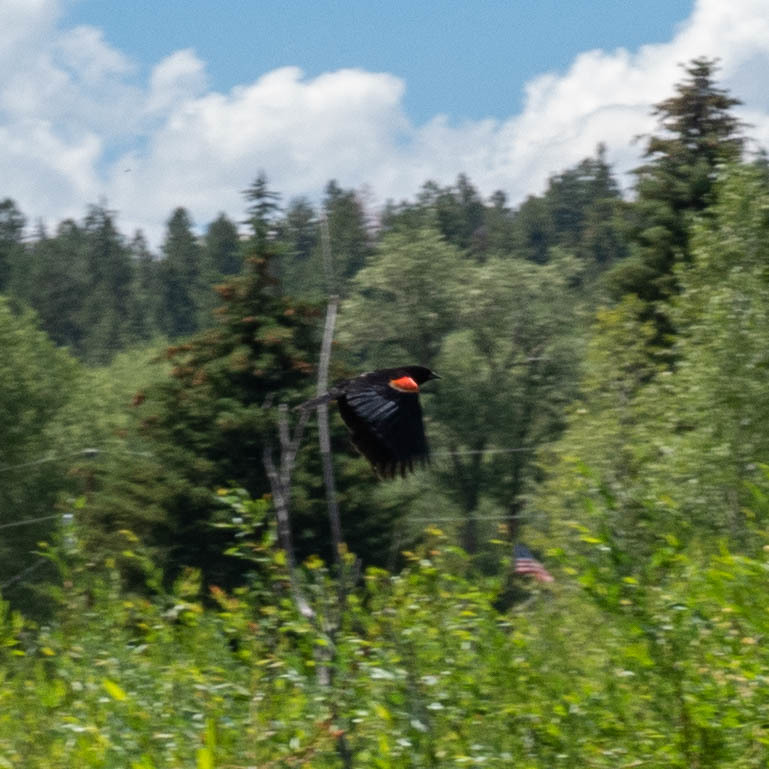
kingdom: Animalia
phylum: Chordata
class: Aves
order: Passeriformes
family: Icteridae
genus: Agelaius
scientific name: Agelaius phoeniceus
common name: Red-winged blackbird
